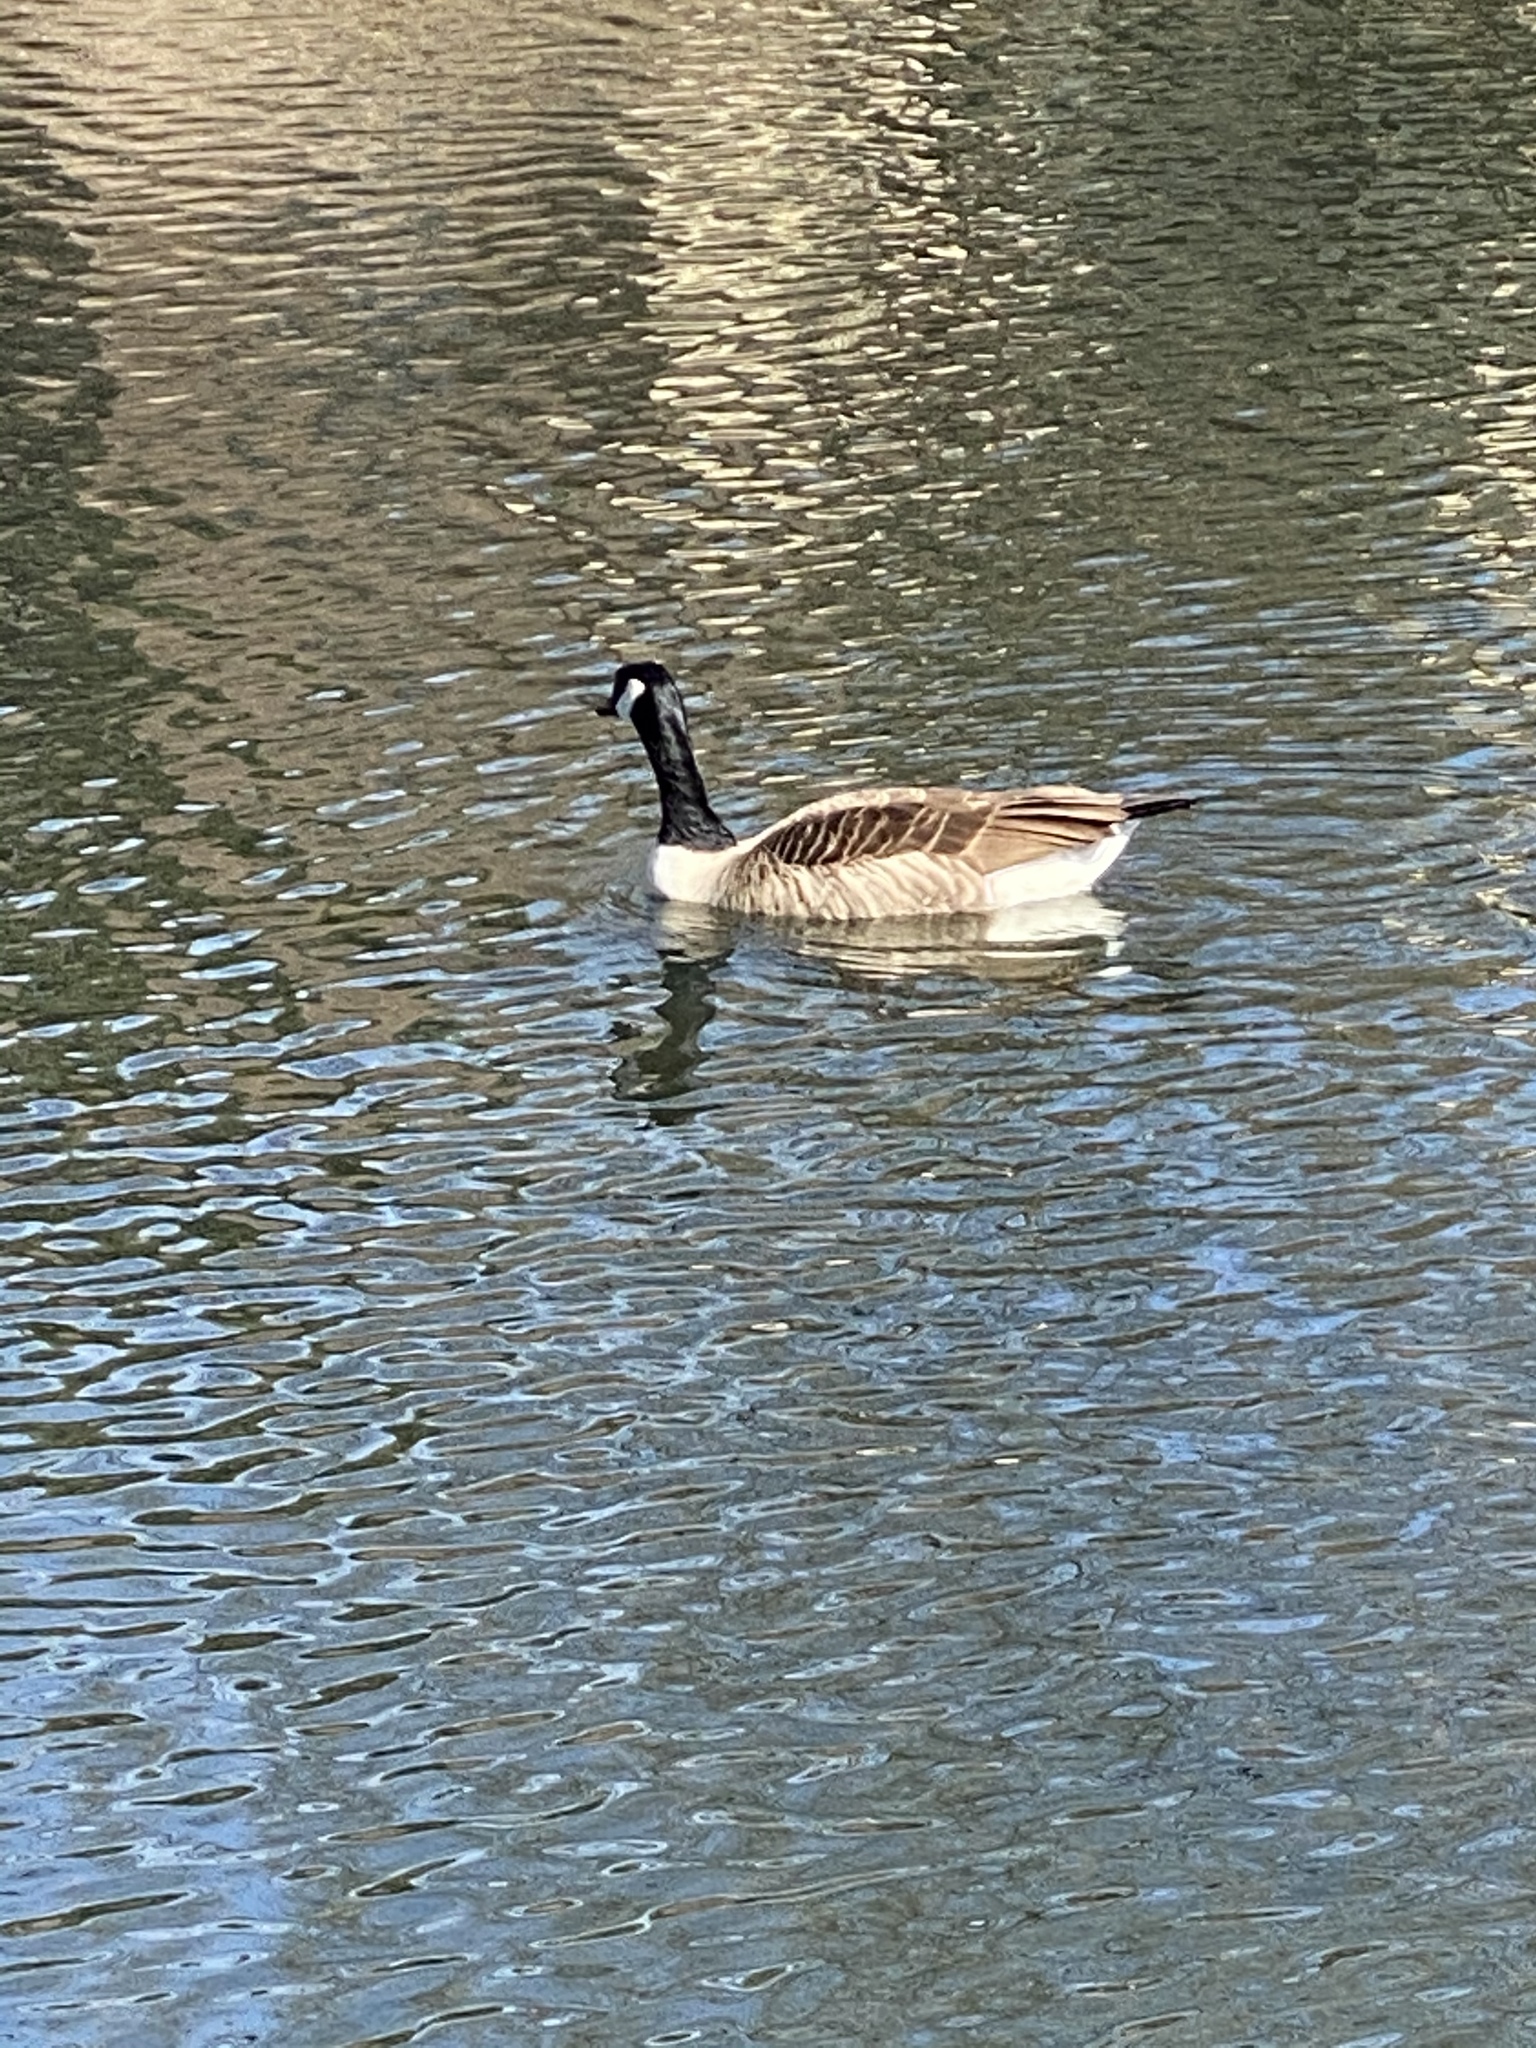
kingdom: Animalia
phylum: Chordata
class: Aves
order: Anseriformes
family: Anatidae
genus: Branta
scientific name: Branta canadensis
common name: Canada goose
